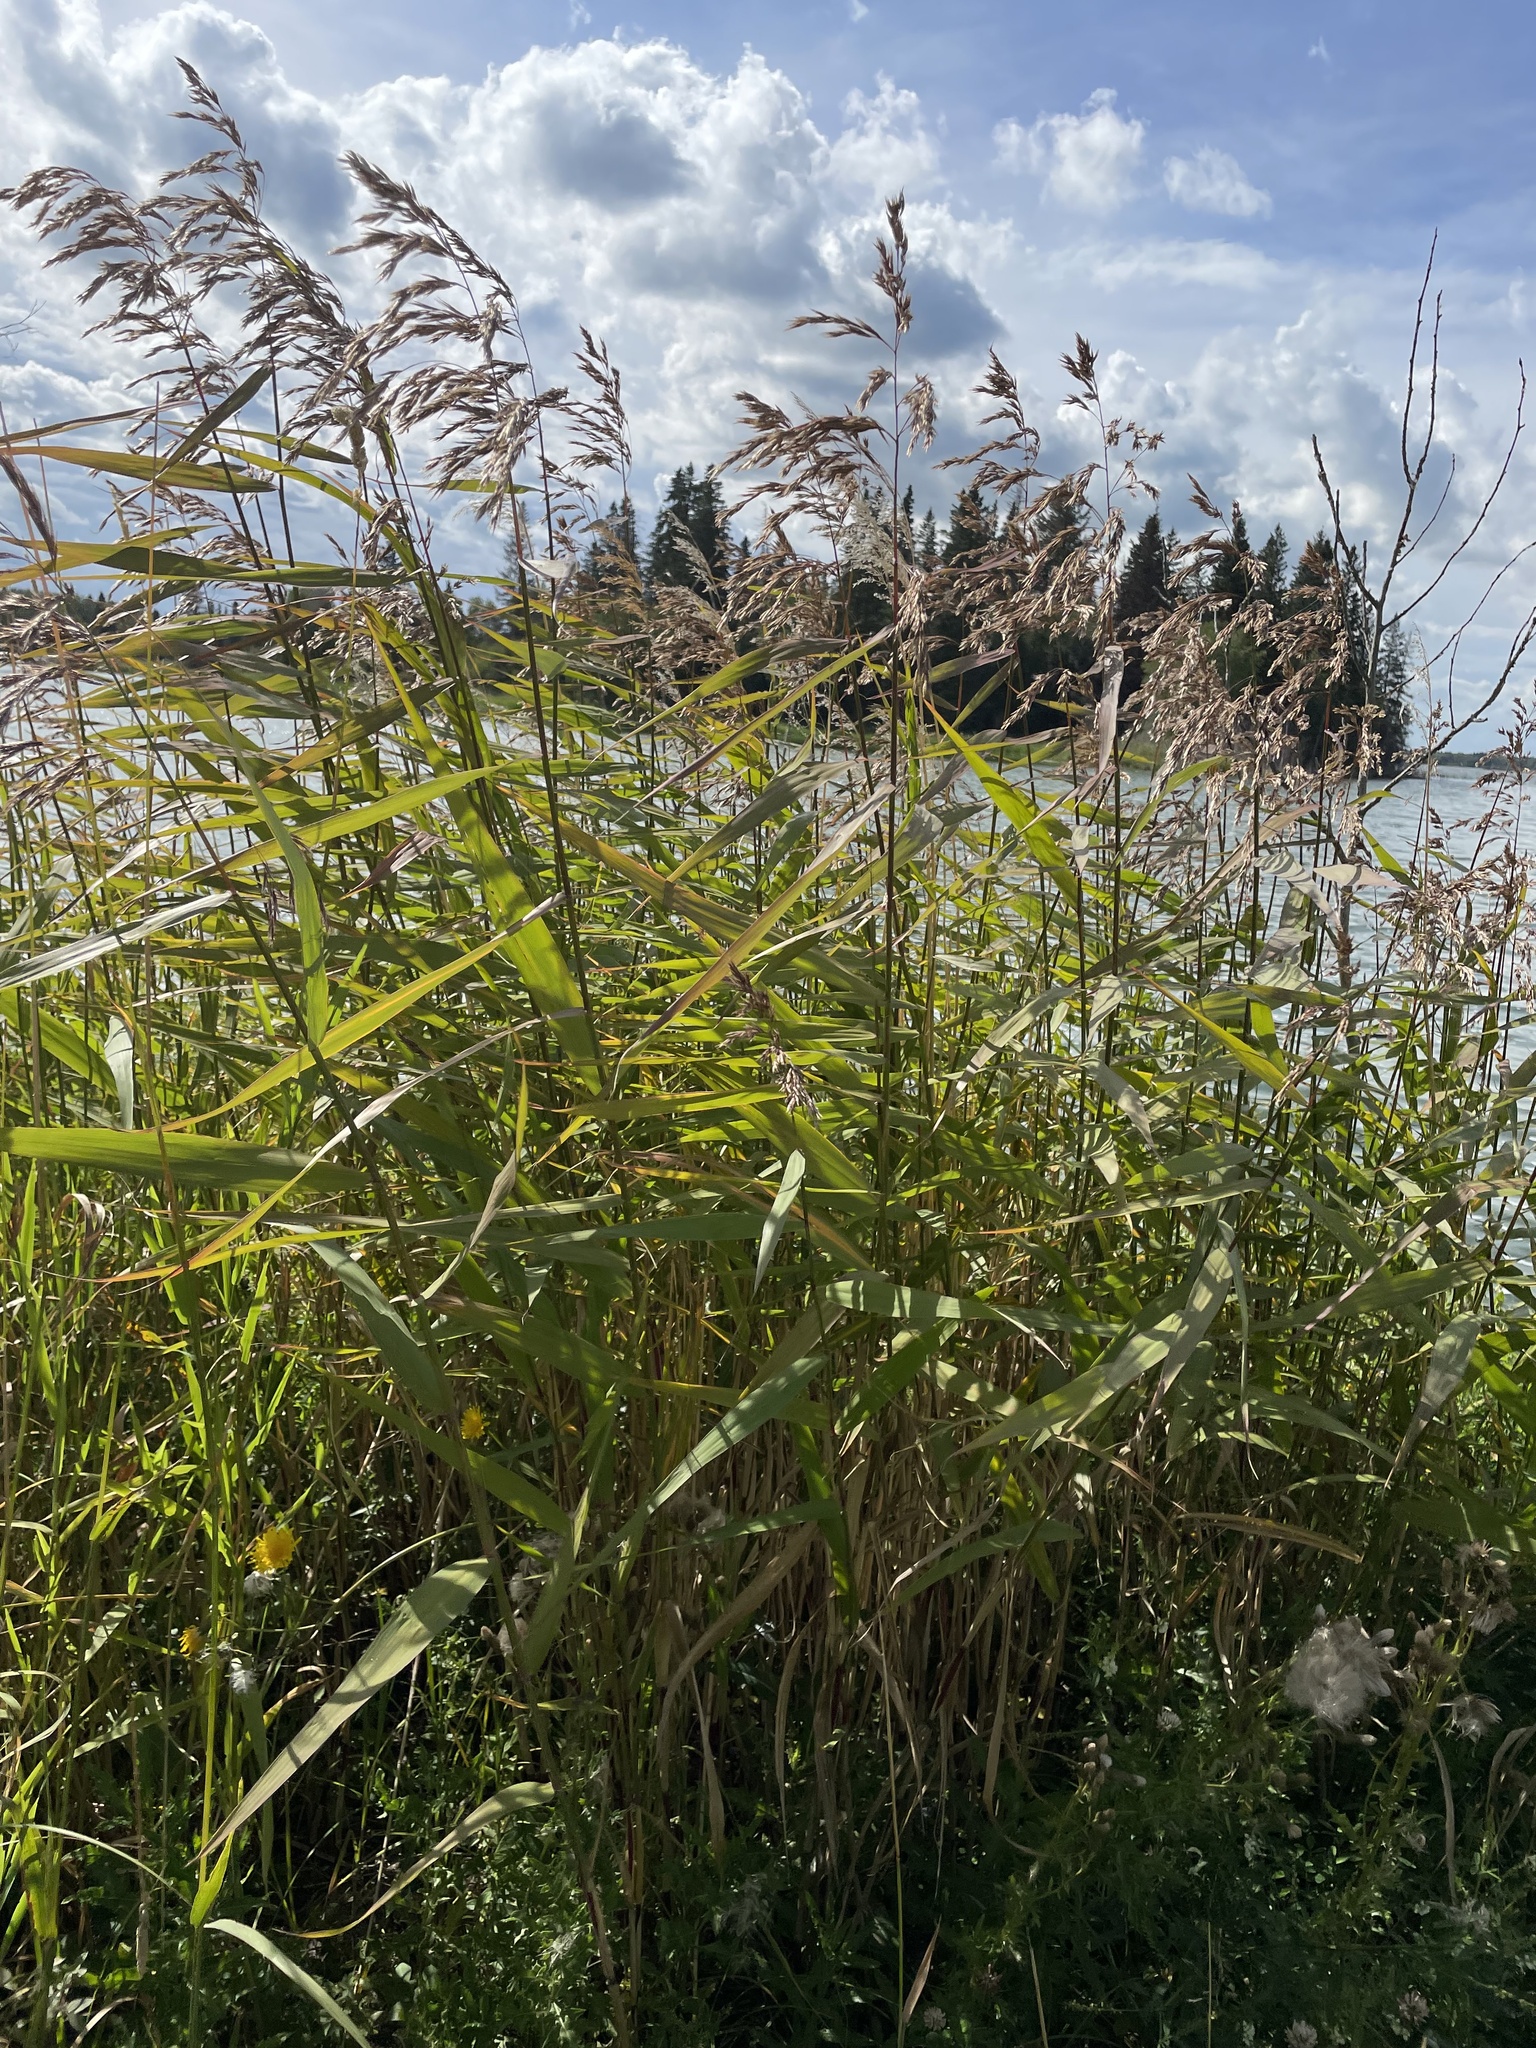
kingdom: Plantae
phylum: Tracheophyta
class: Liliopsida
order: Poales
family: Poaceae
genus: Phragmites
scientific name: Phragmites australis
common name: Common reed
